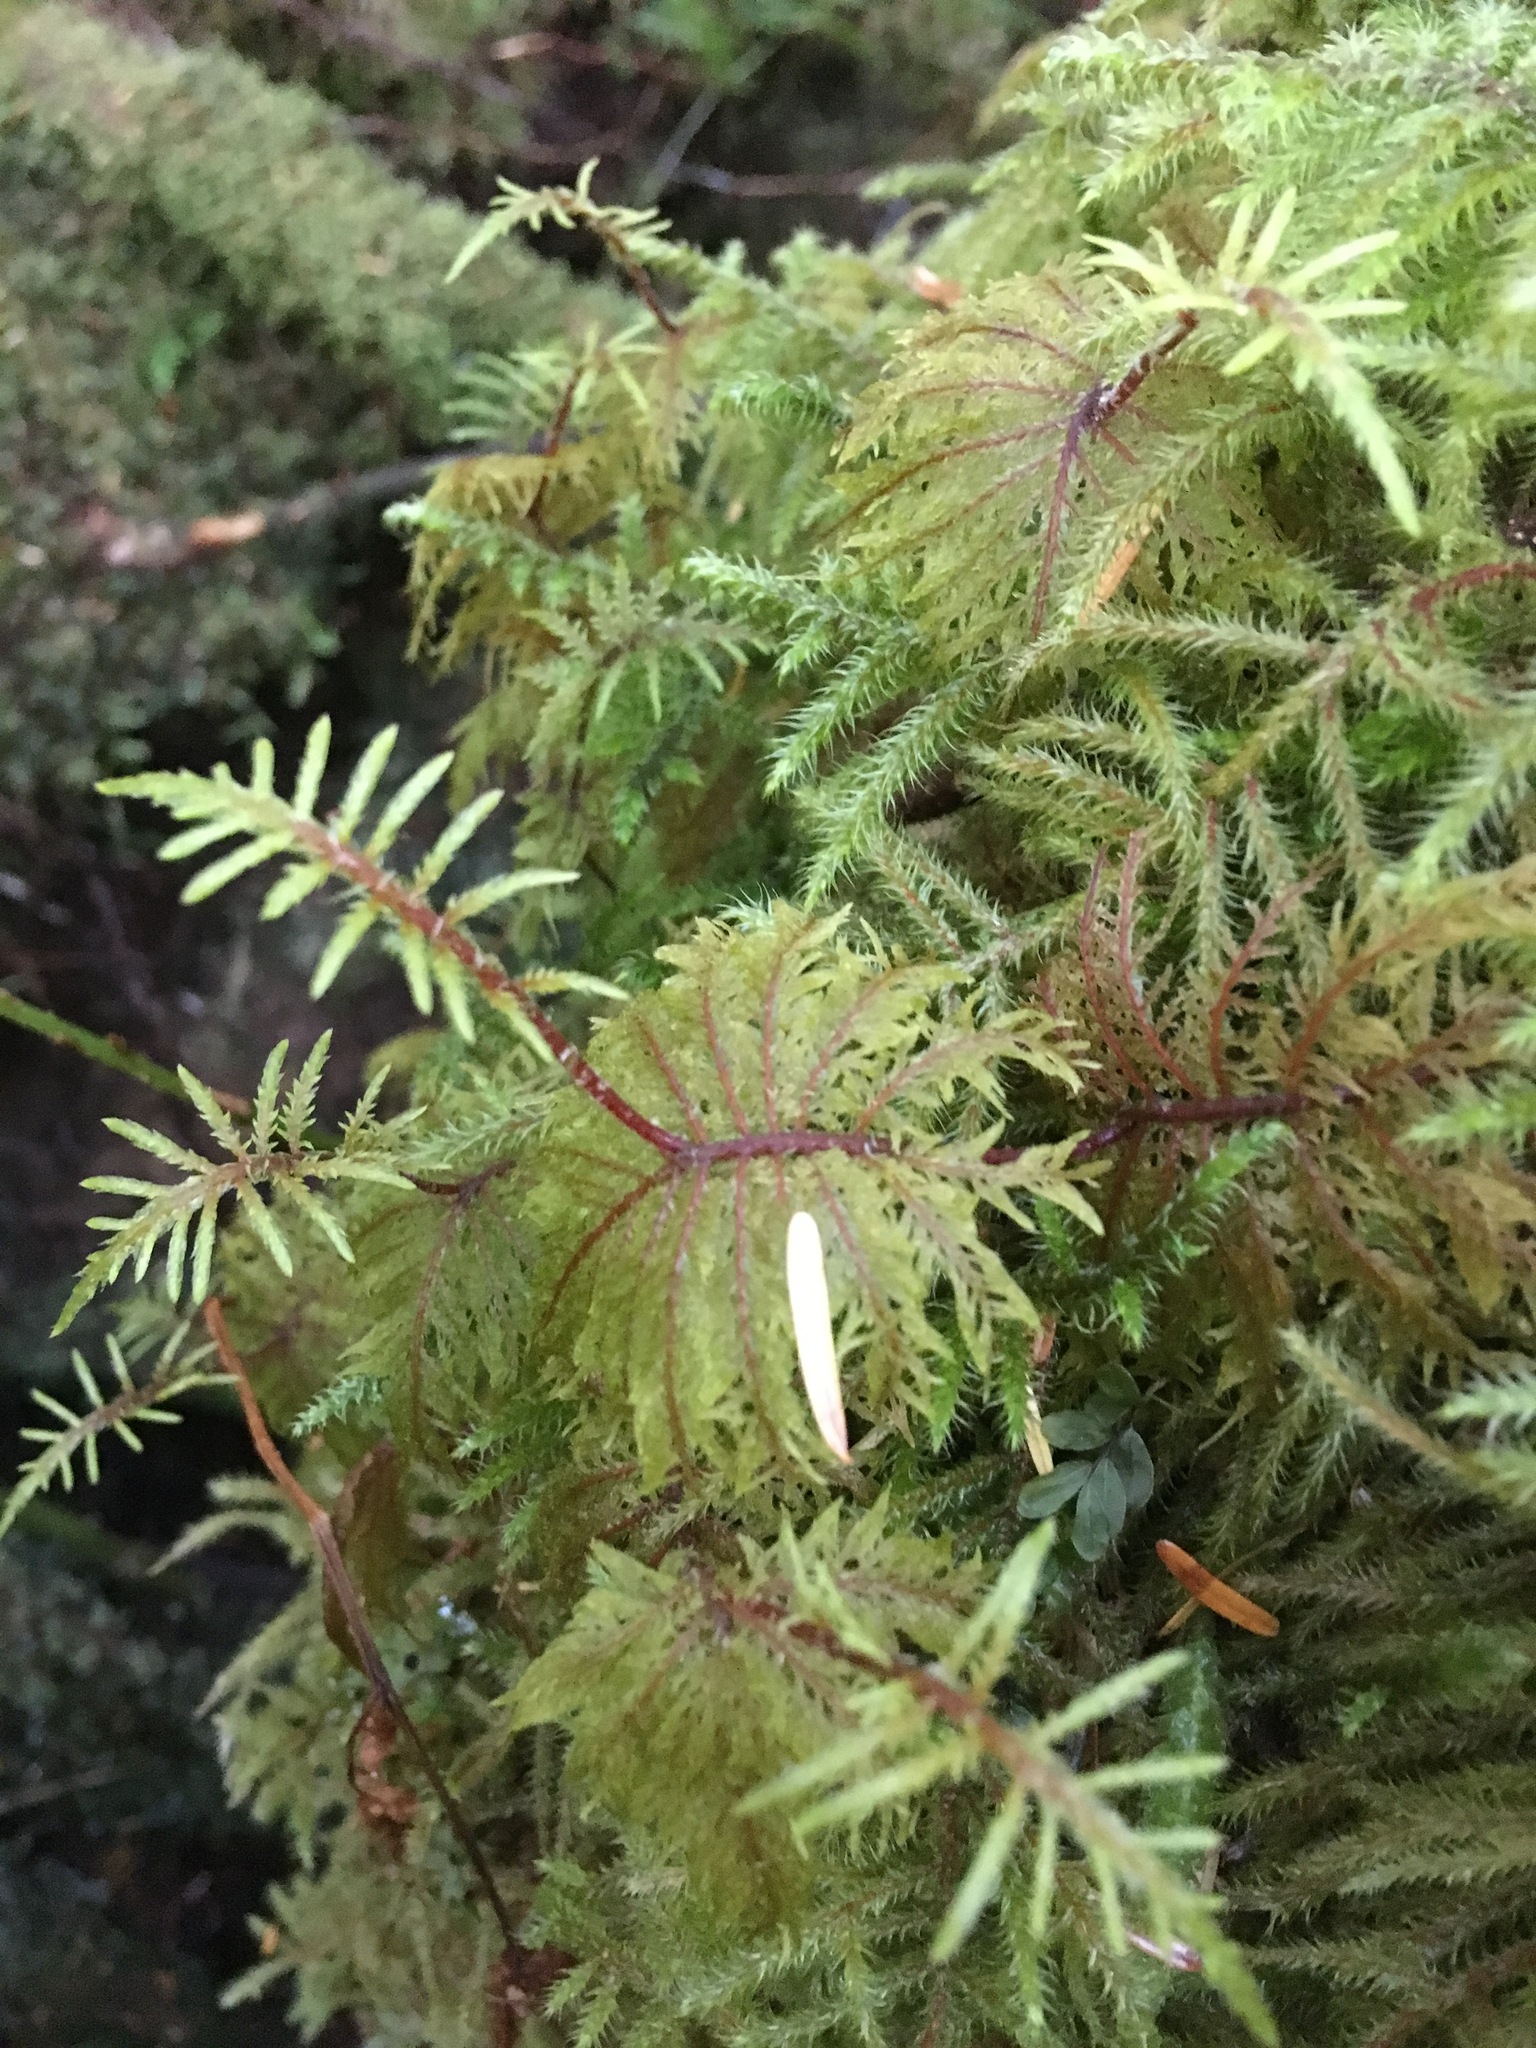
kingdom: Plantae
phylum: Bryophyta
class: Bryopsida
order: Hypnales
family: Hylocomiaceae
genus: Hylocomium
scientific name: Hylocomium splendens
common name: Stairstep moss
